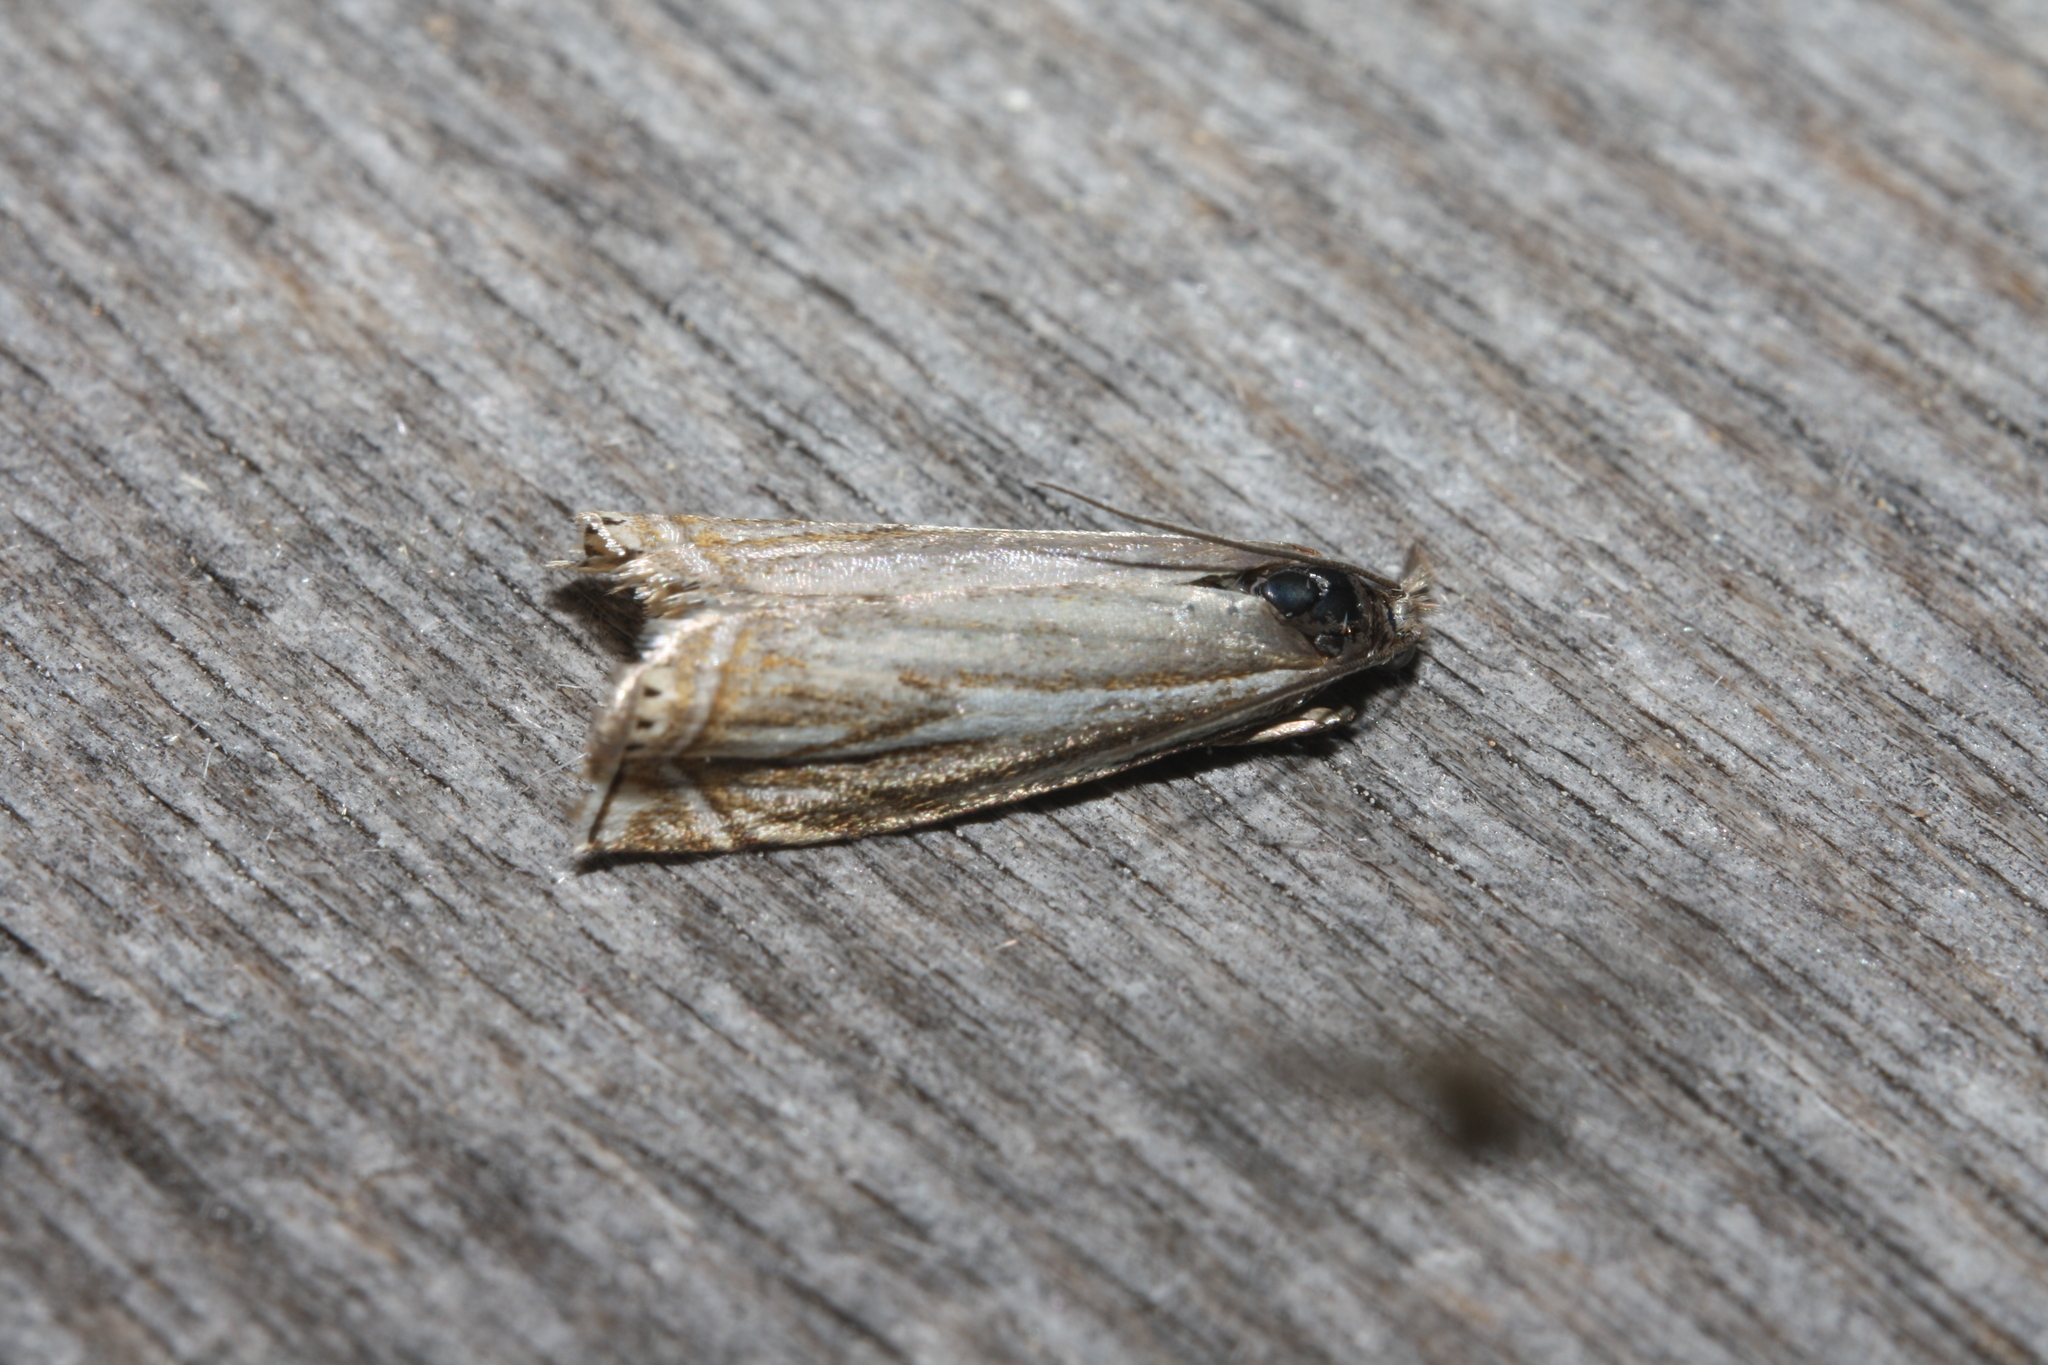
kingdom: Animalia
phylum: Arthropoda
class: Insecta
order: Lepidoptera
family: Crambidae
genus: Crambus
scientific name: Crambus nemorella
